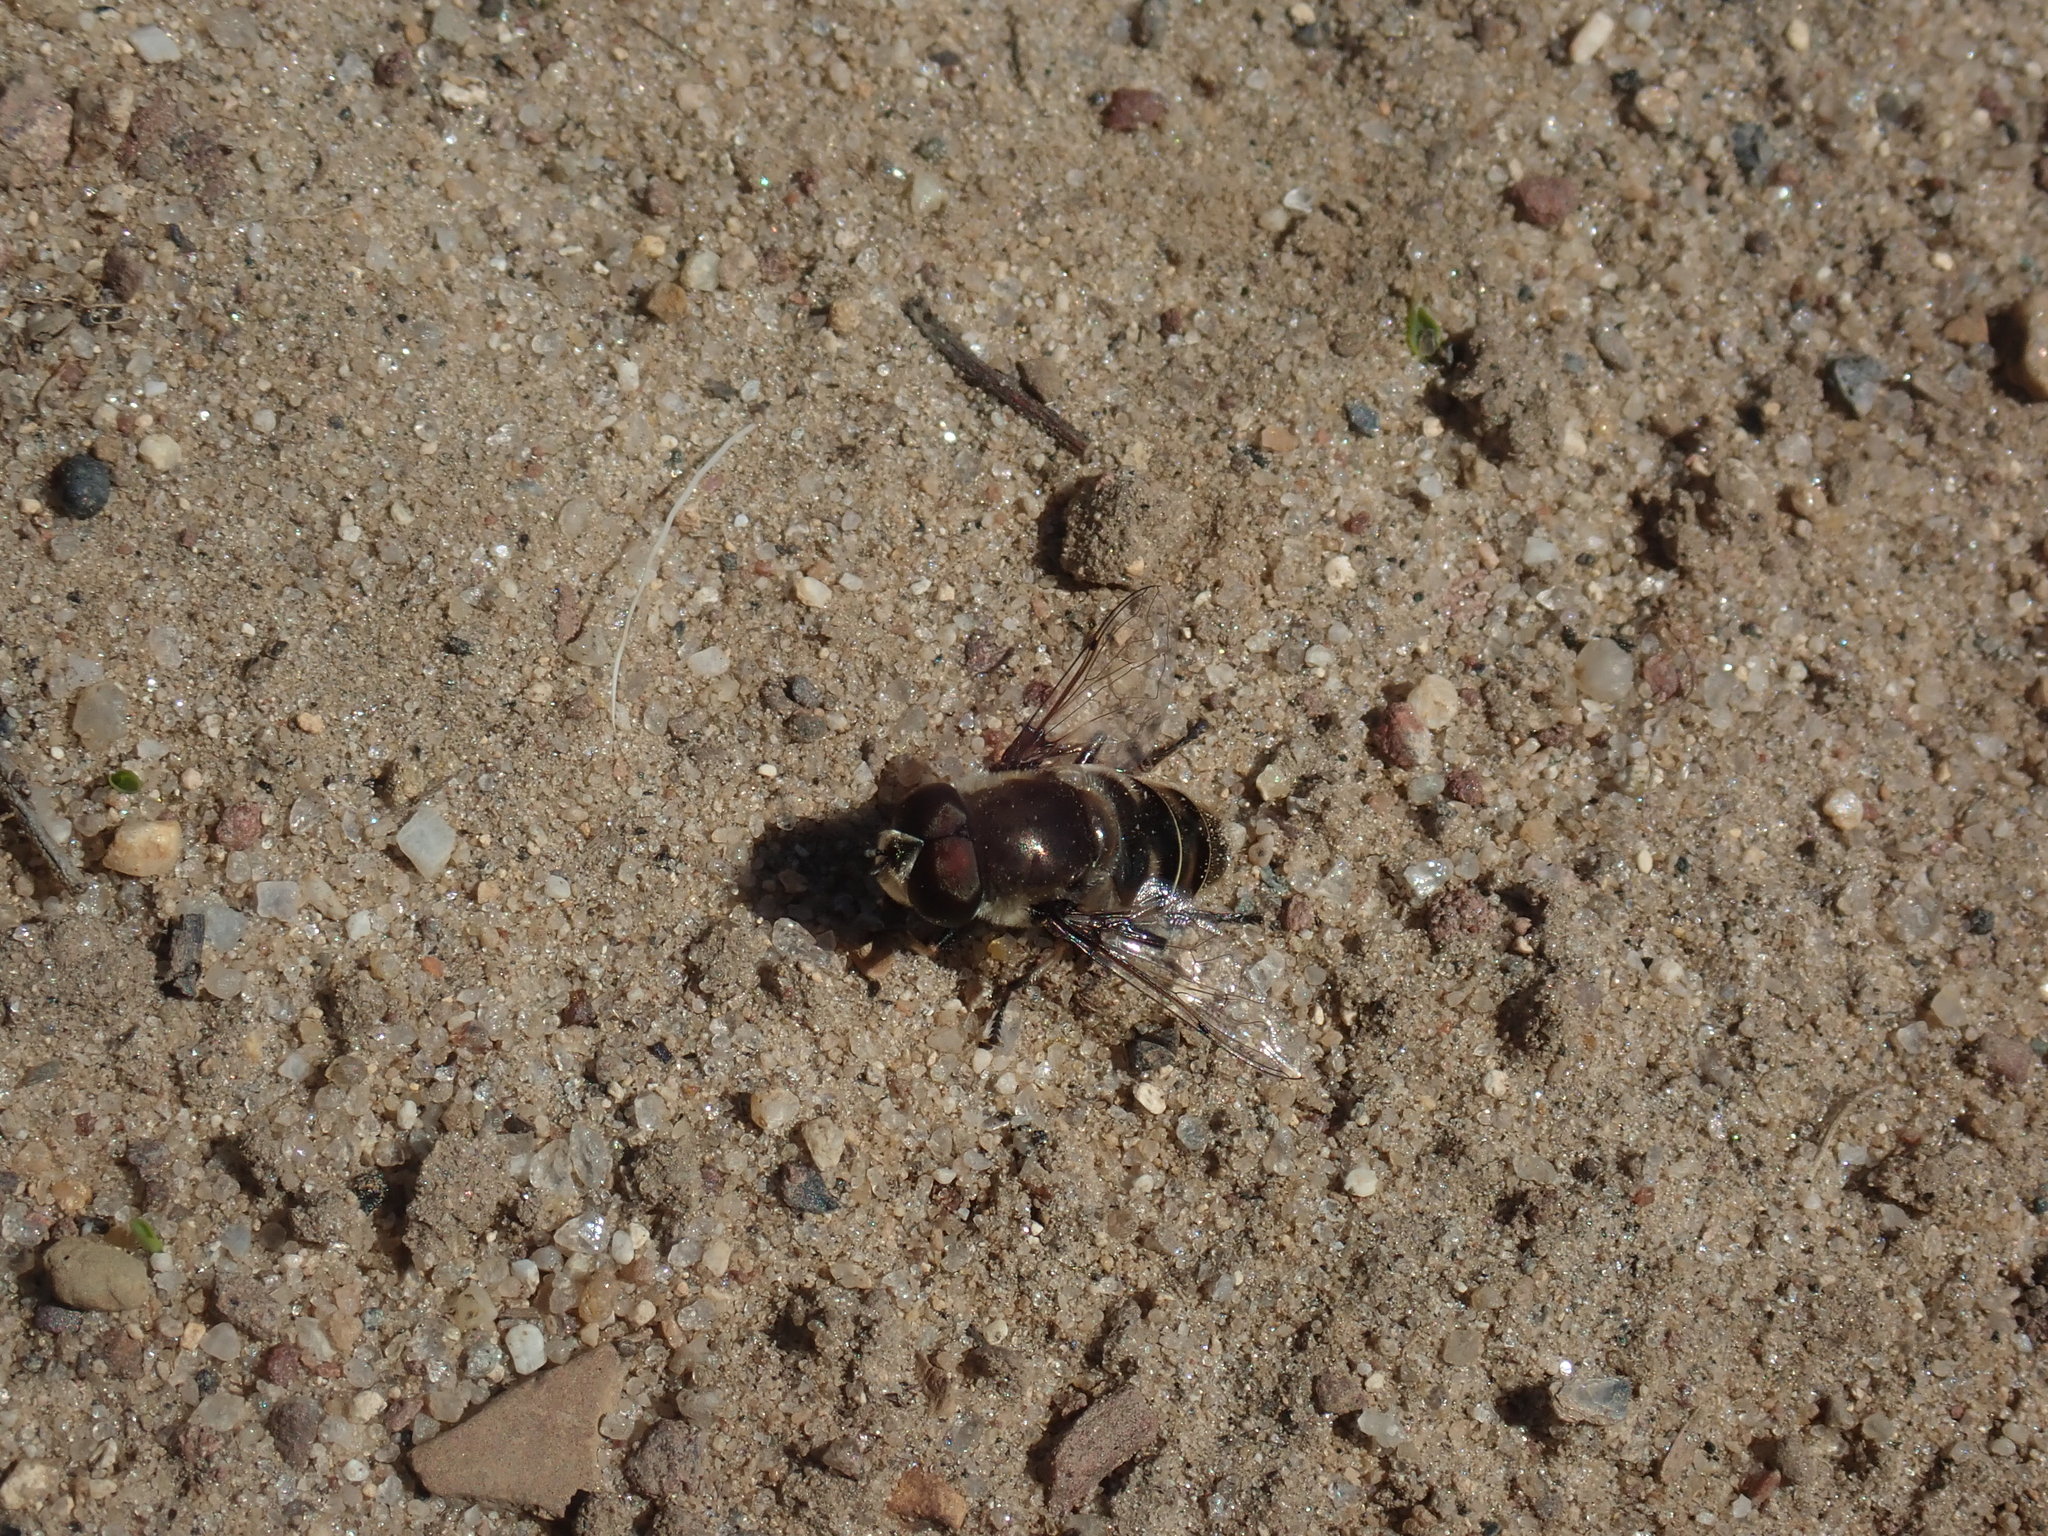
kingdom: Animalia
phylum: Arthropoda
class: Insecta
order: Diptera
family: Syrphidae
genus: Eristalis
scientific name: Eristalis dimidiata
